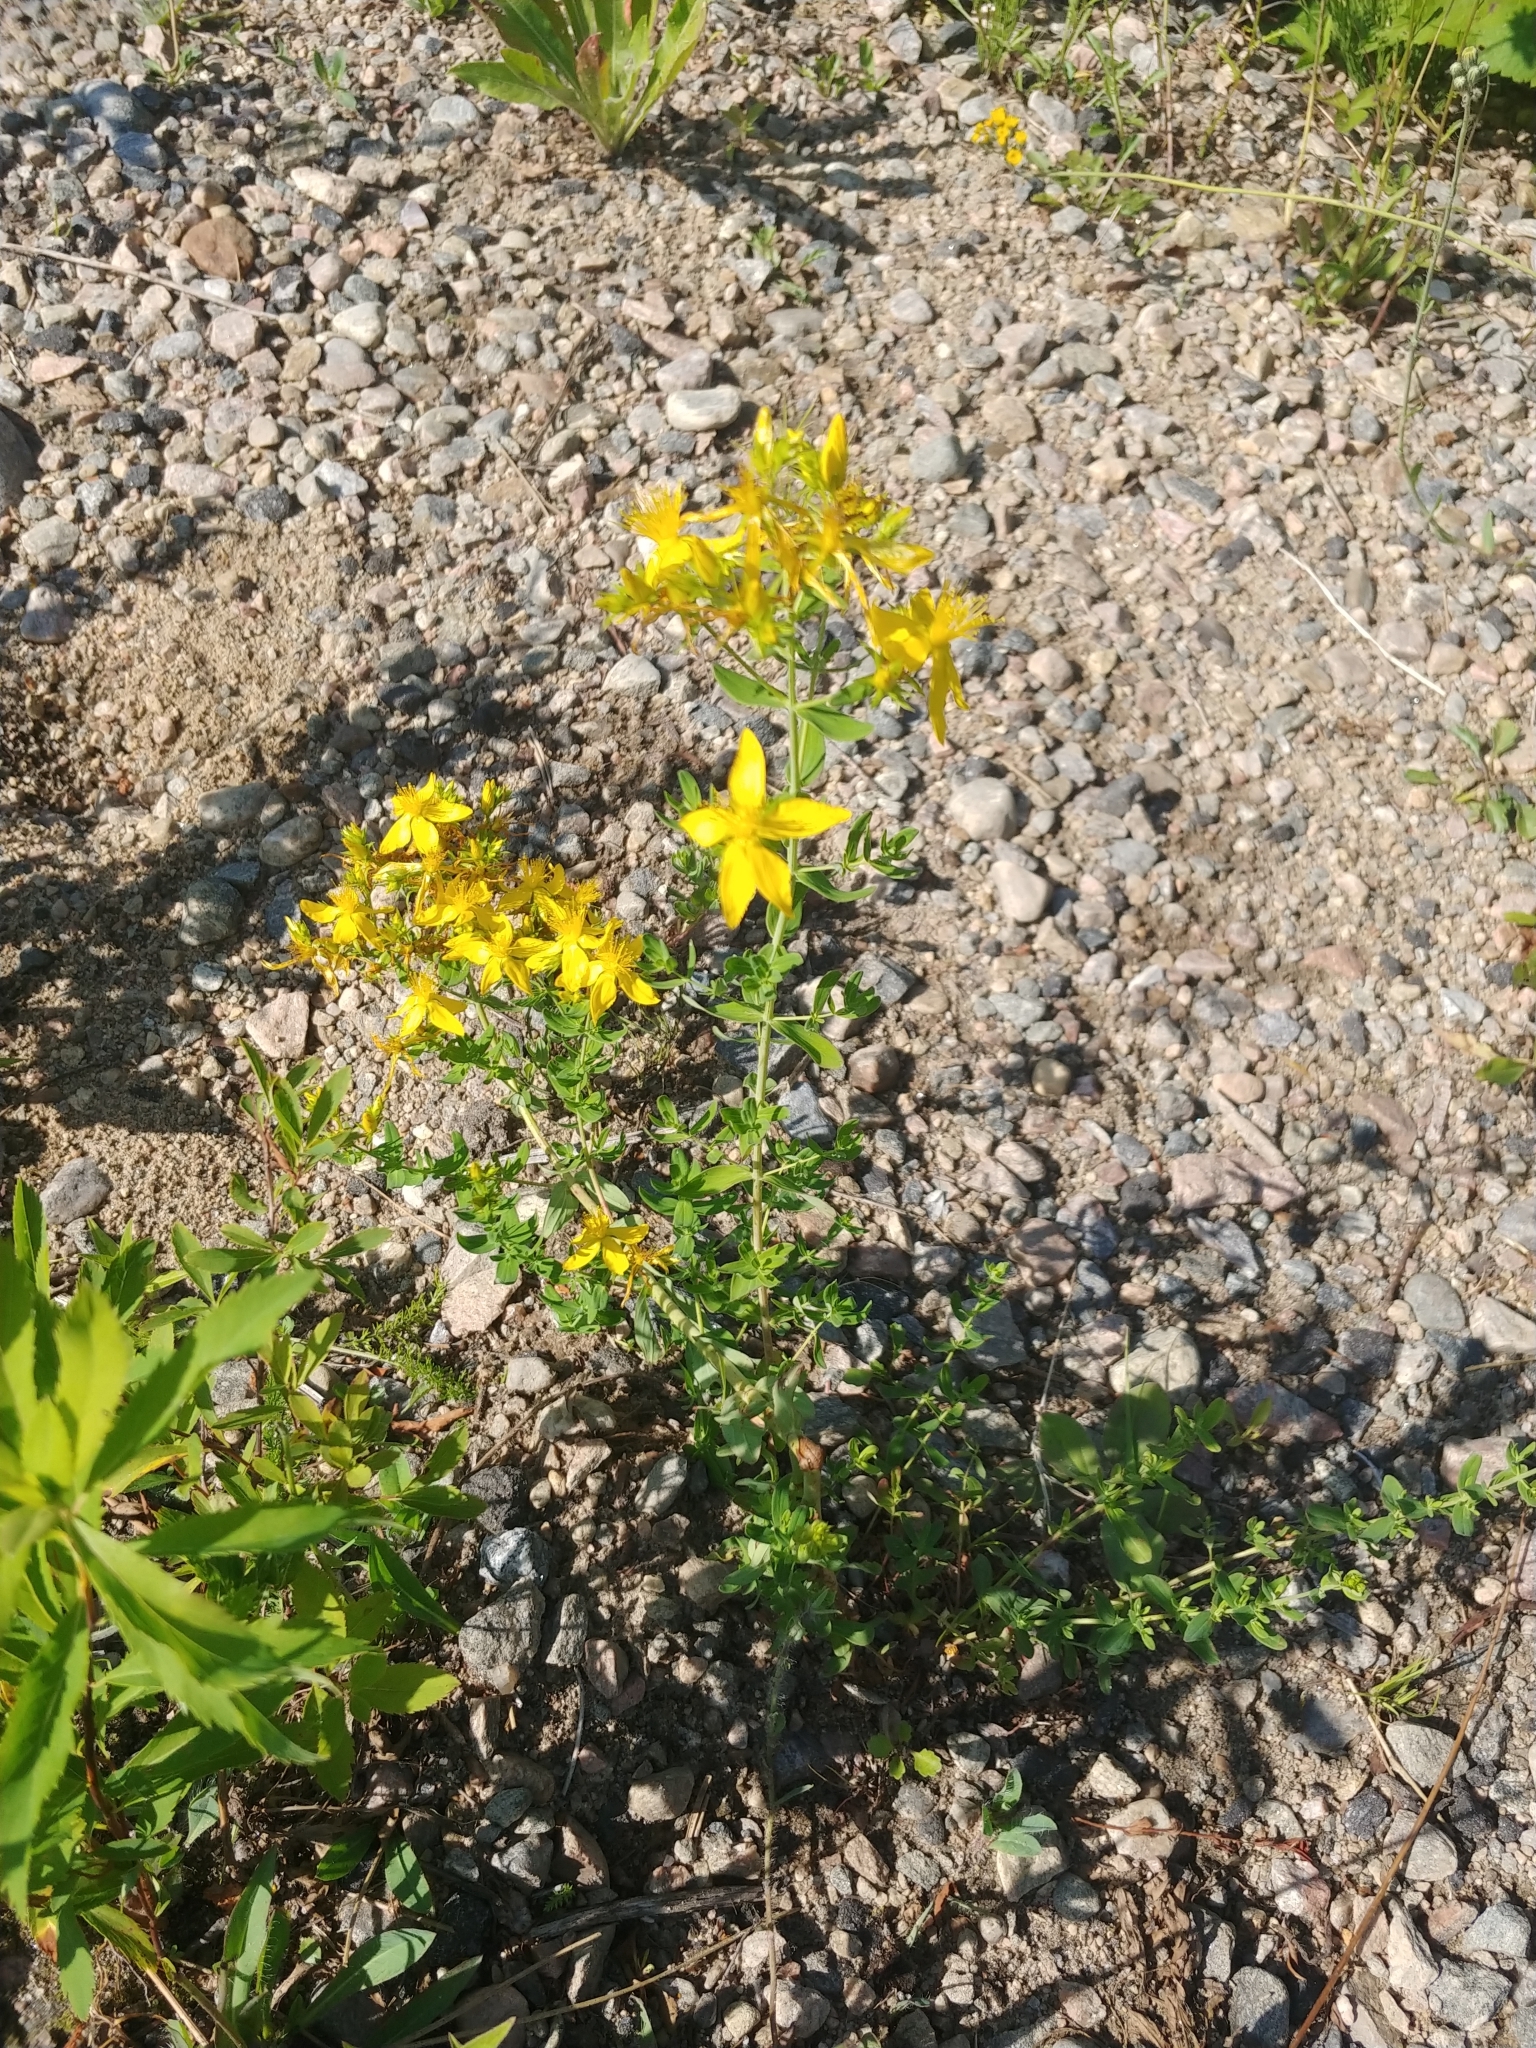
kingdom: Plantae
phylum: Tracheophyta
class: Magnoliopsida
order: Malpighiales
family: Hypericaceae
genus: Hypericum
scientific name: Hypericum perforatum
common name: Common st. johnswort
